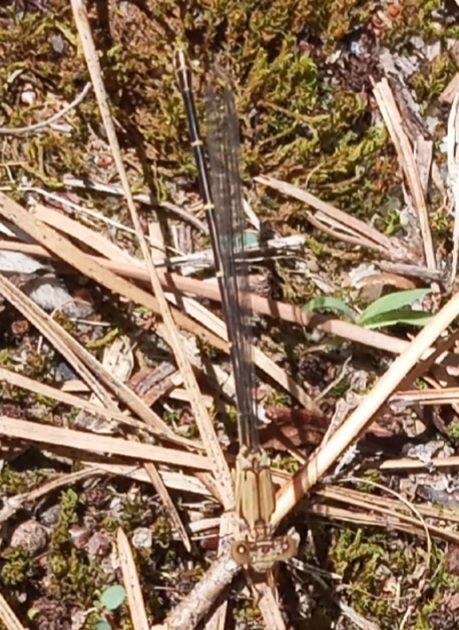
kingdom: Animalia
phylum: Arthropoda
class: Insecta
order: Odonata
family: Coenagrionidae
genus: Argia
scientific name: Argia apicalis
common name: Blue-fronted dancer
